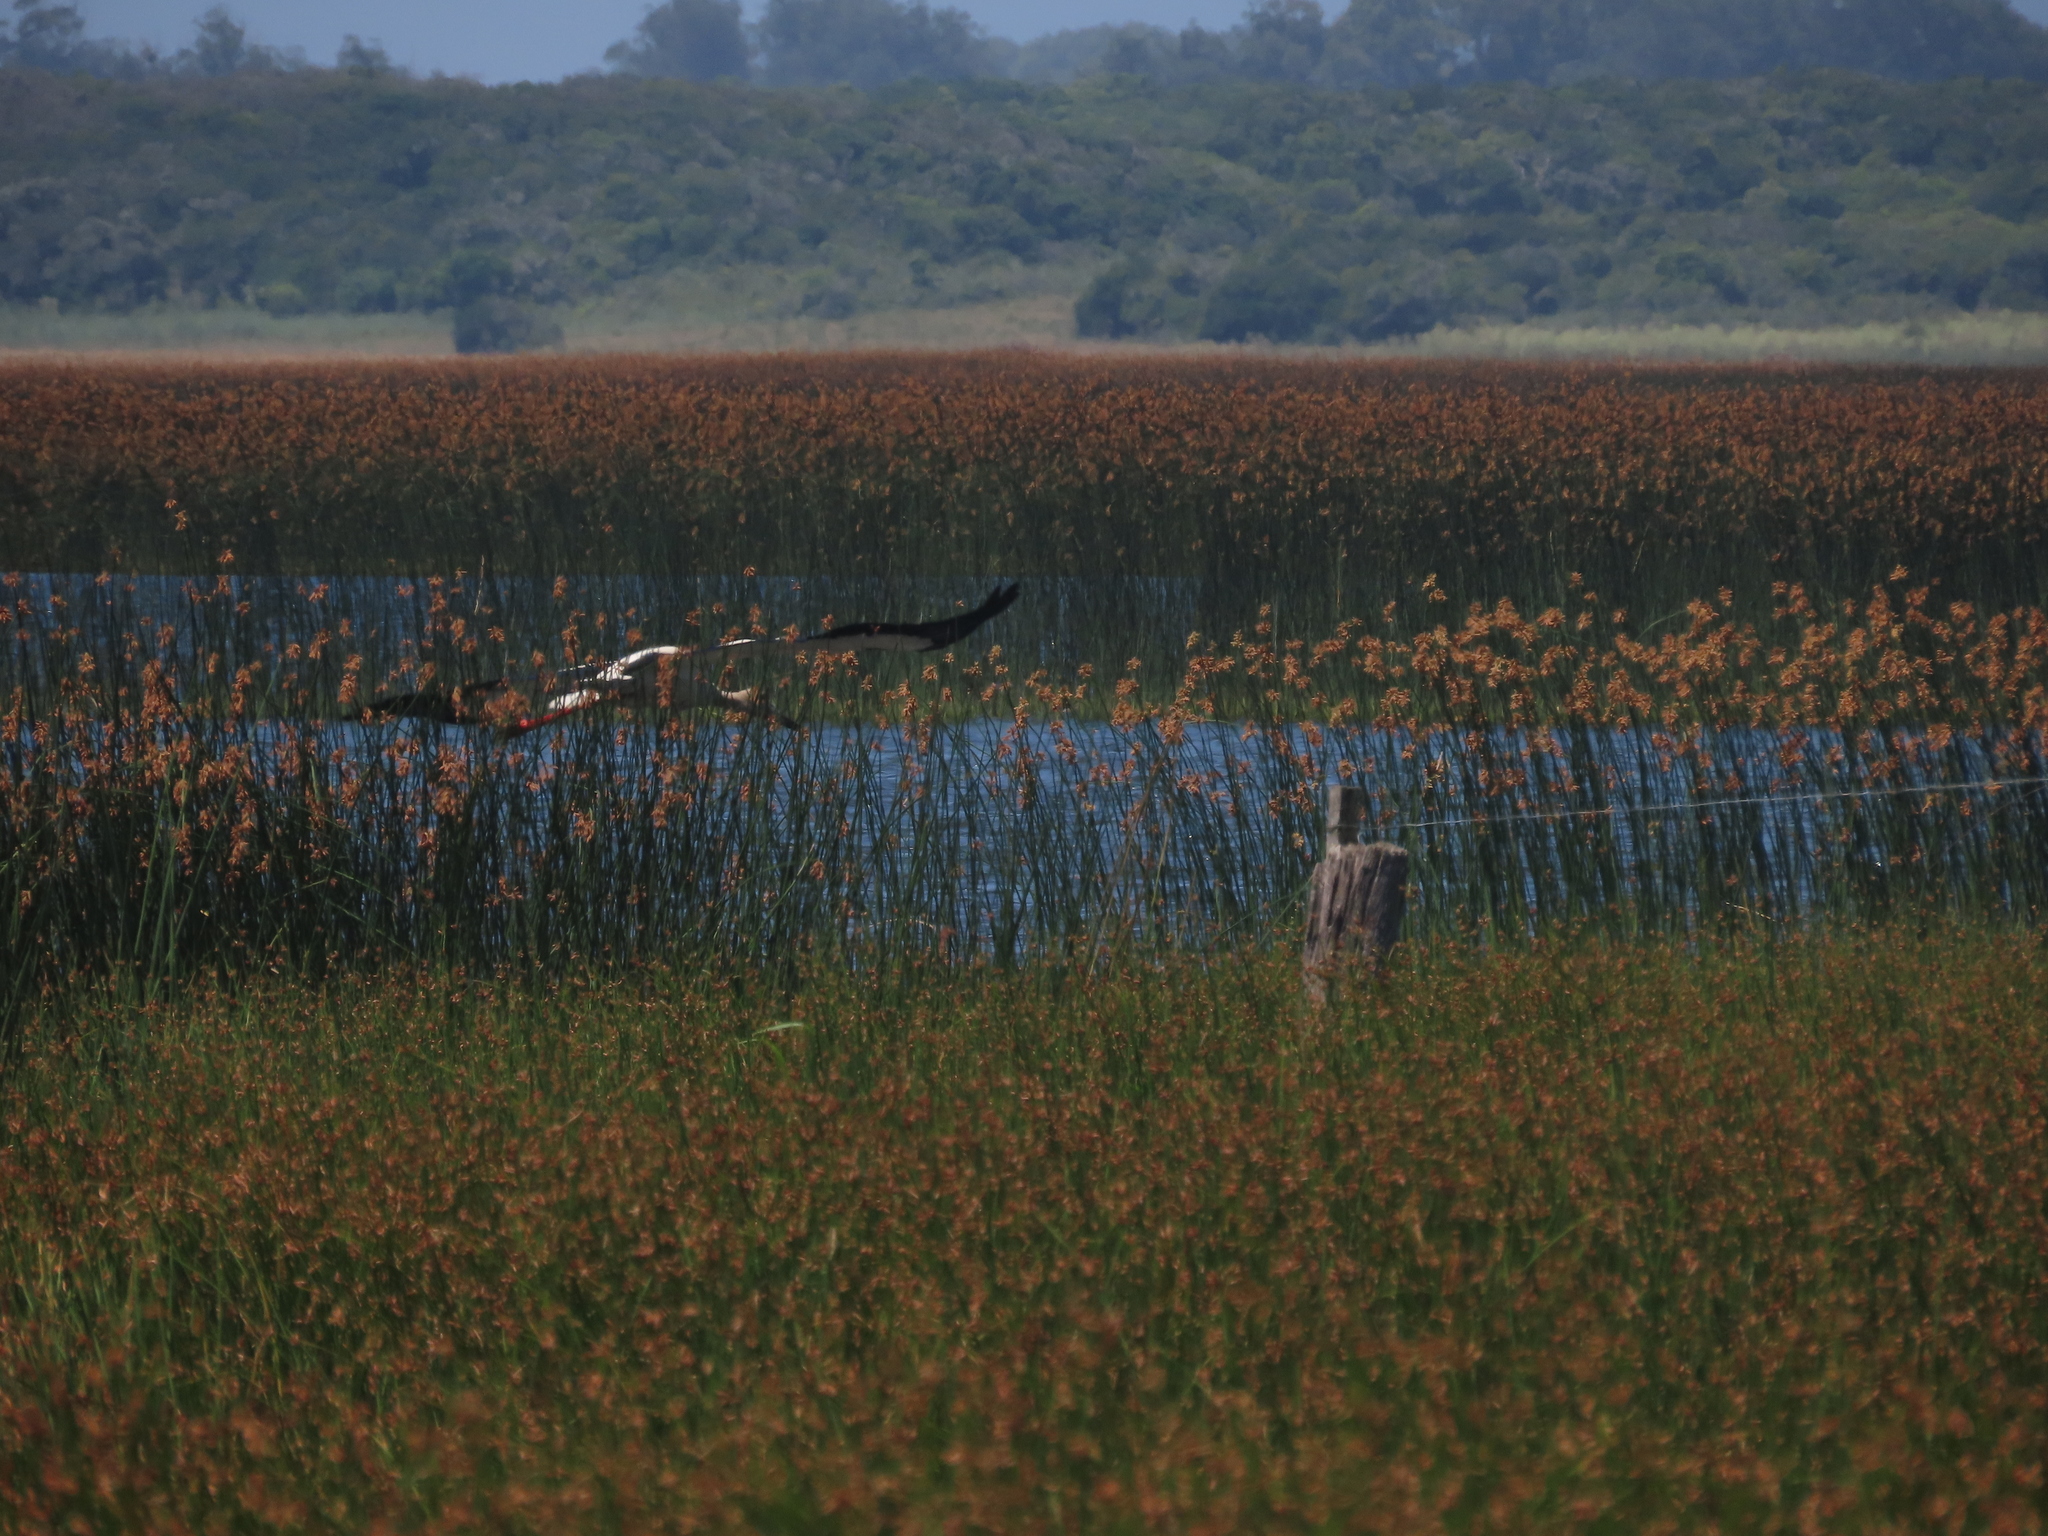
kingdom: Animalia
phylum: Chordata
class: Aves
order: Ciconiiformes
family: Ciconiidae
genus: Ciconia
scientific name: Ciconia maguari
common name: Maguari stork
